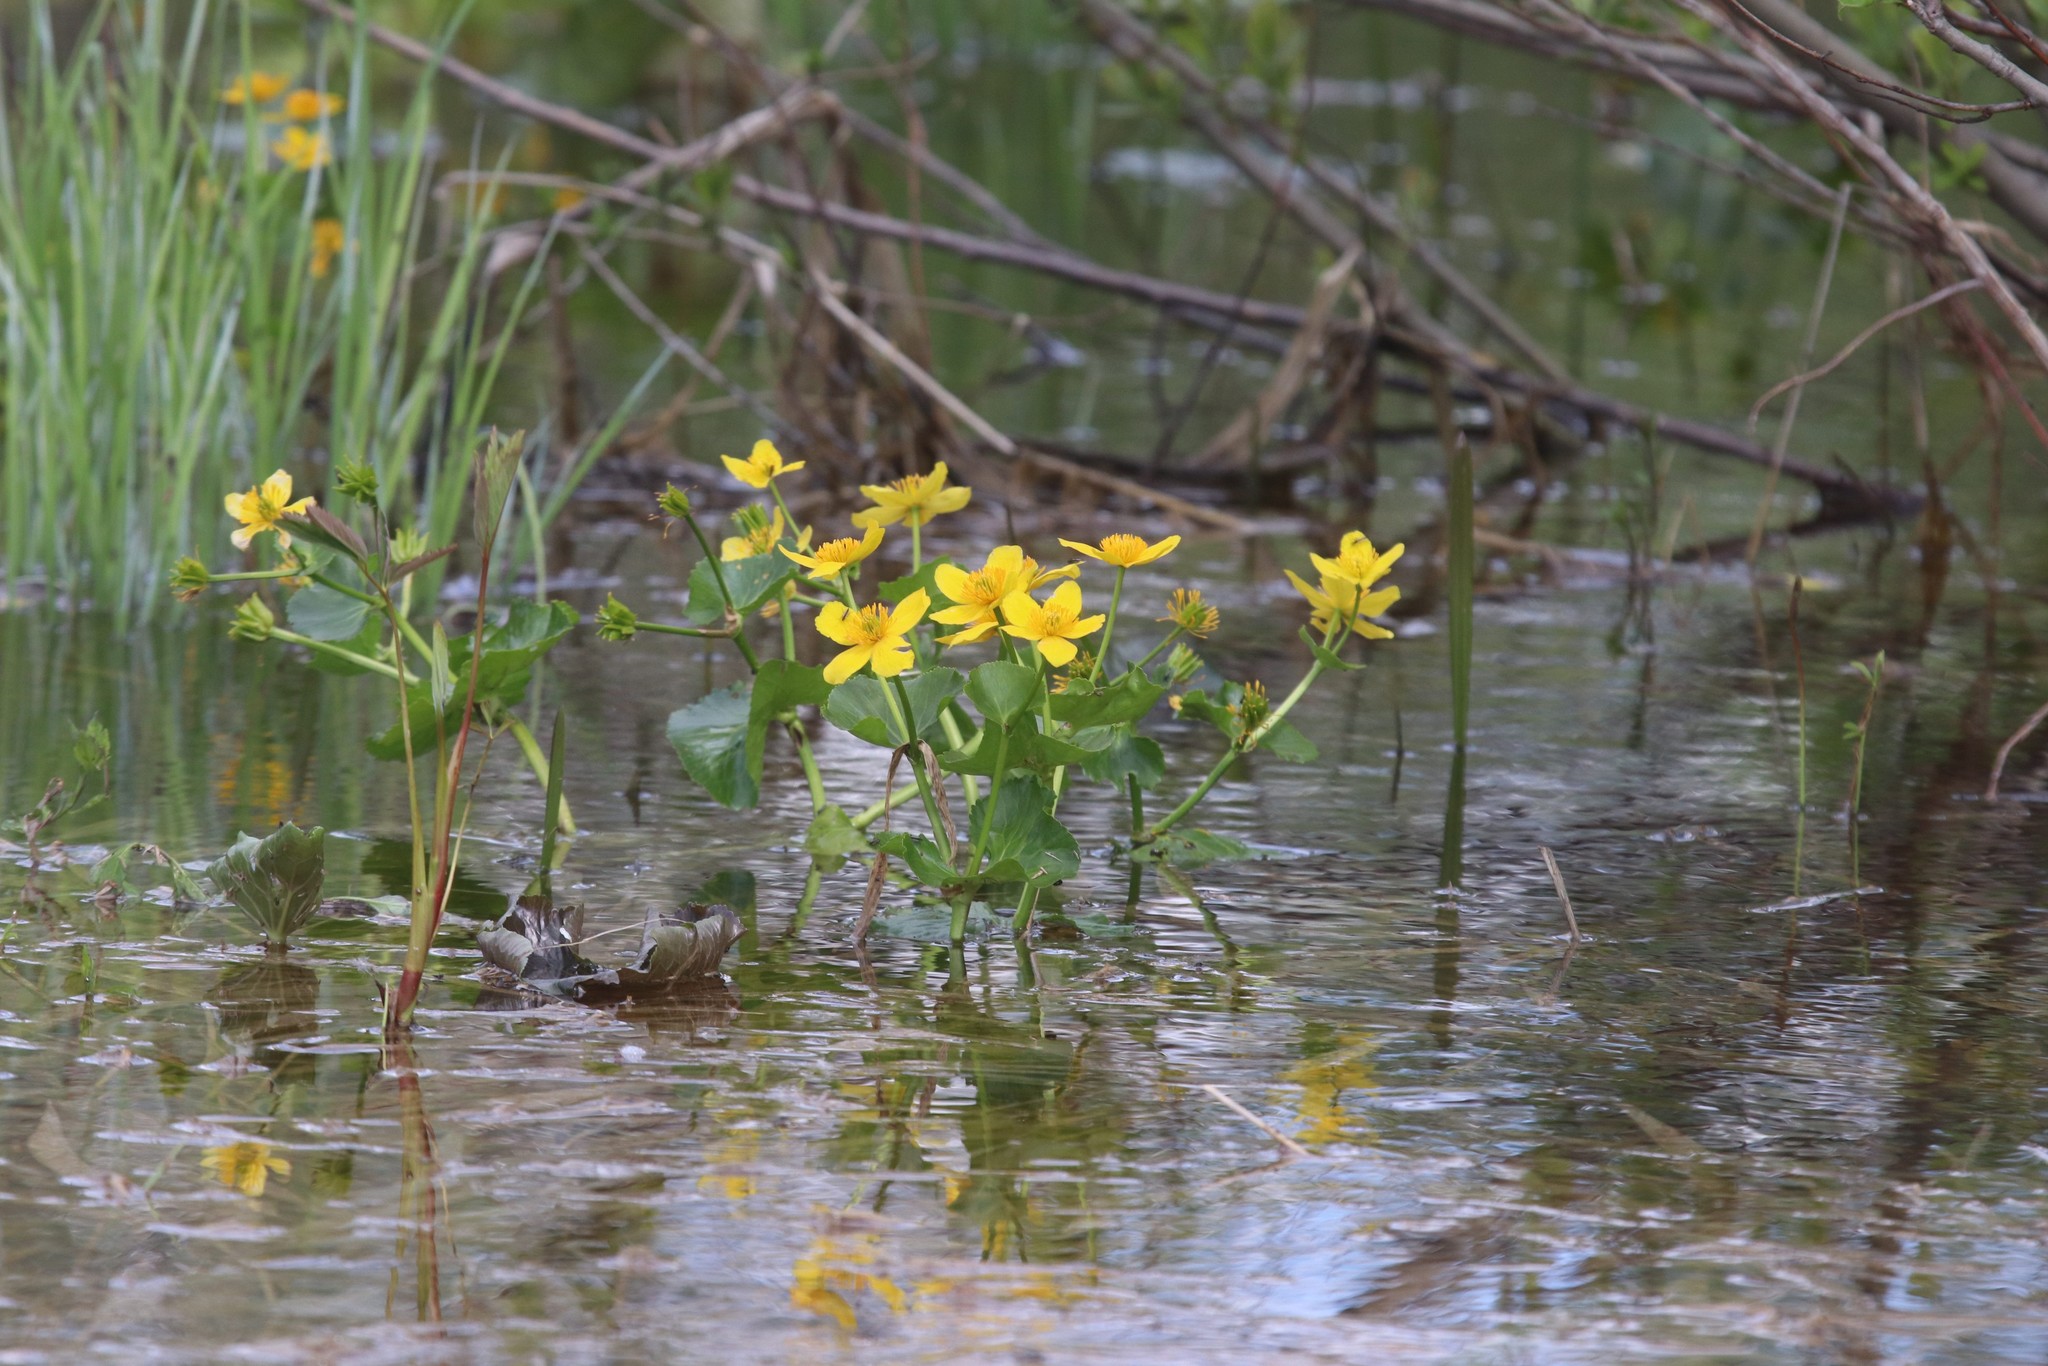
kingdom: Plantae
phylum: Tracheophyta
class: Magnoliopsida
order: Ranunculales
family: Ranunculaceae
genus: Caltha
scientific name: Caltha palustris
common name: Marsh marigold
